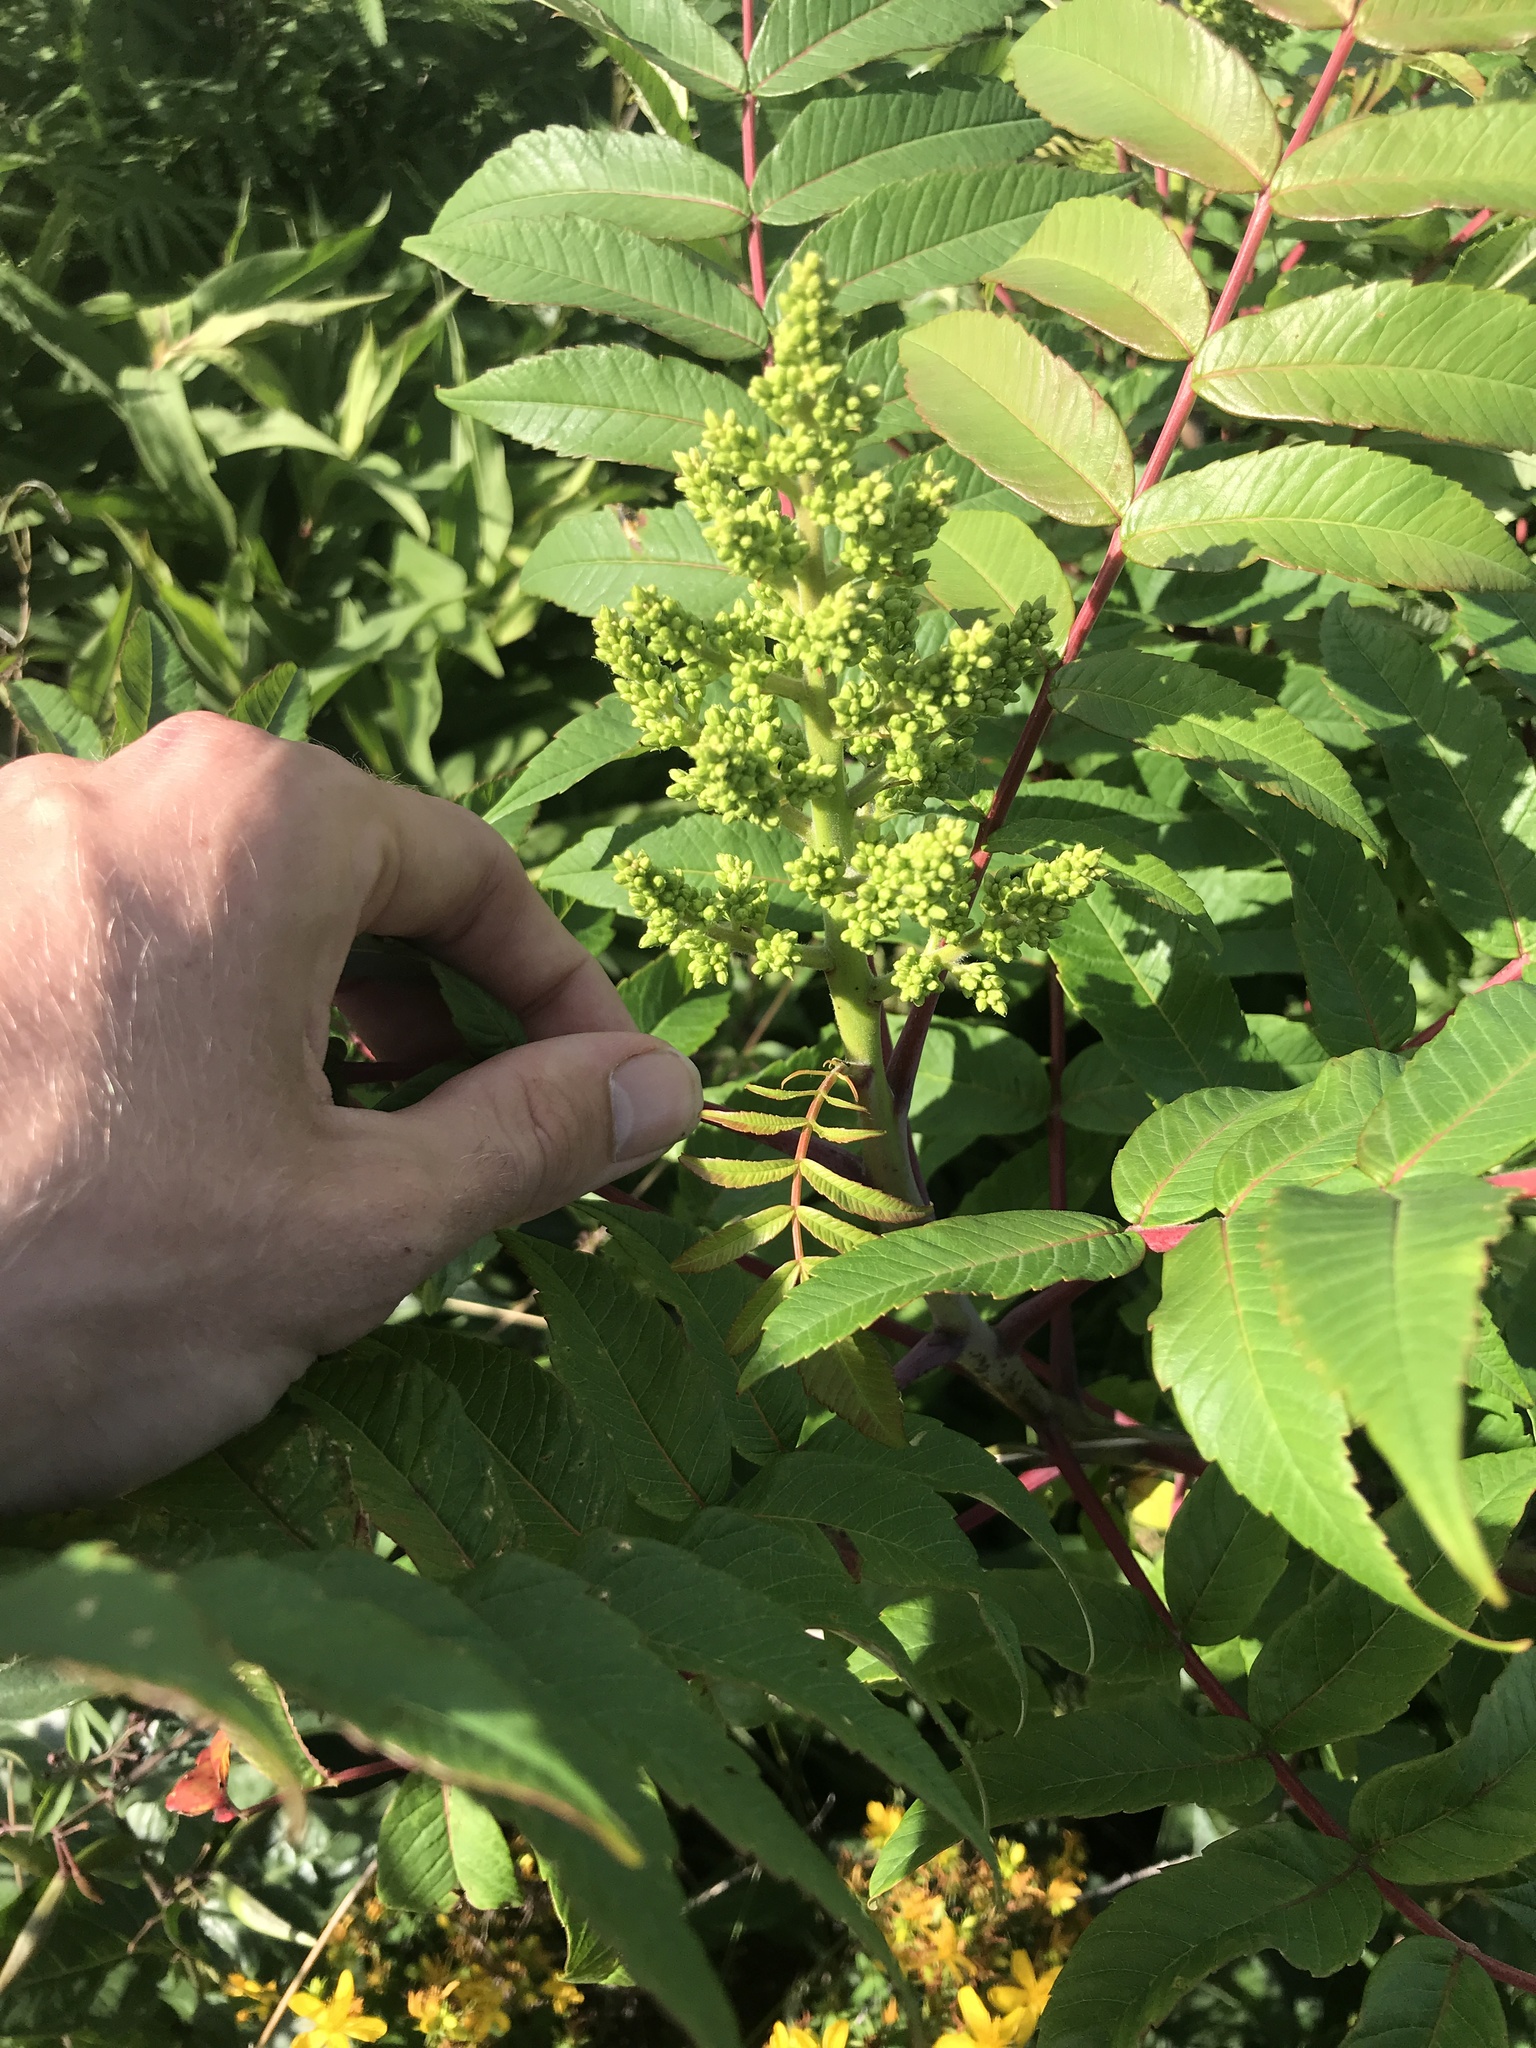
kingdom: Plantae
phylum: Tracheophyta
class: Magnoliopsida
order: Sapindales
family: Anacardiaceae
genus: Rhus
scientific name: Rhus glabra
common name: Scarlet sumac
